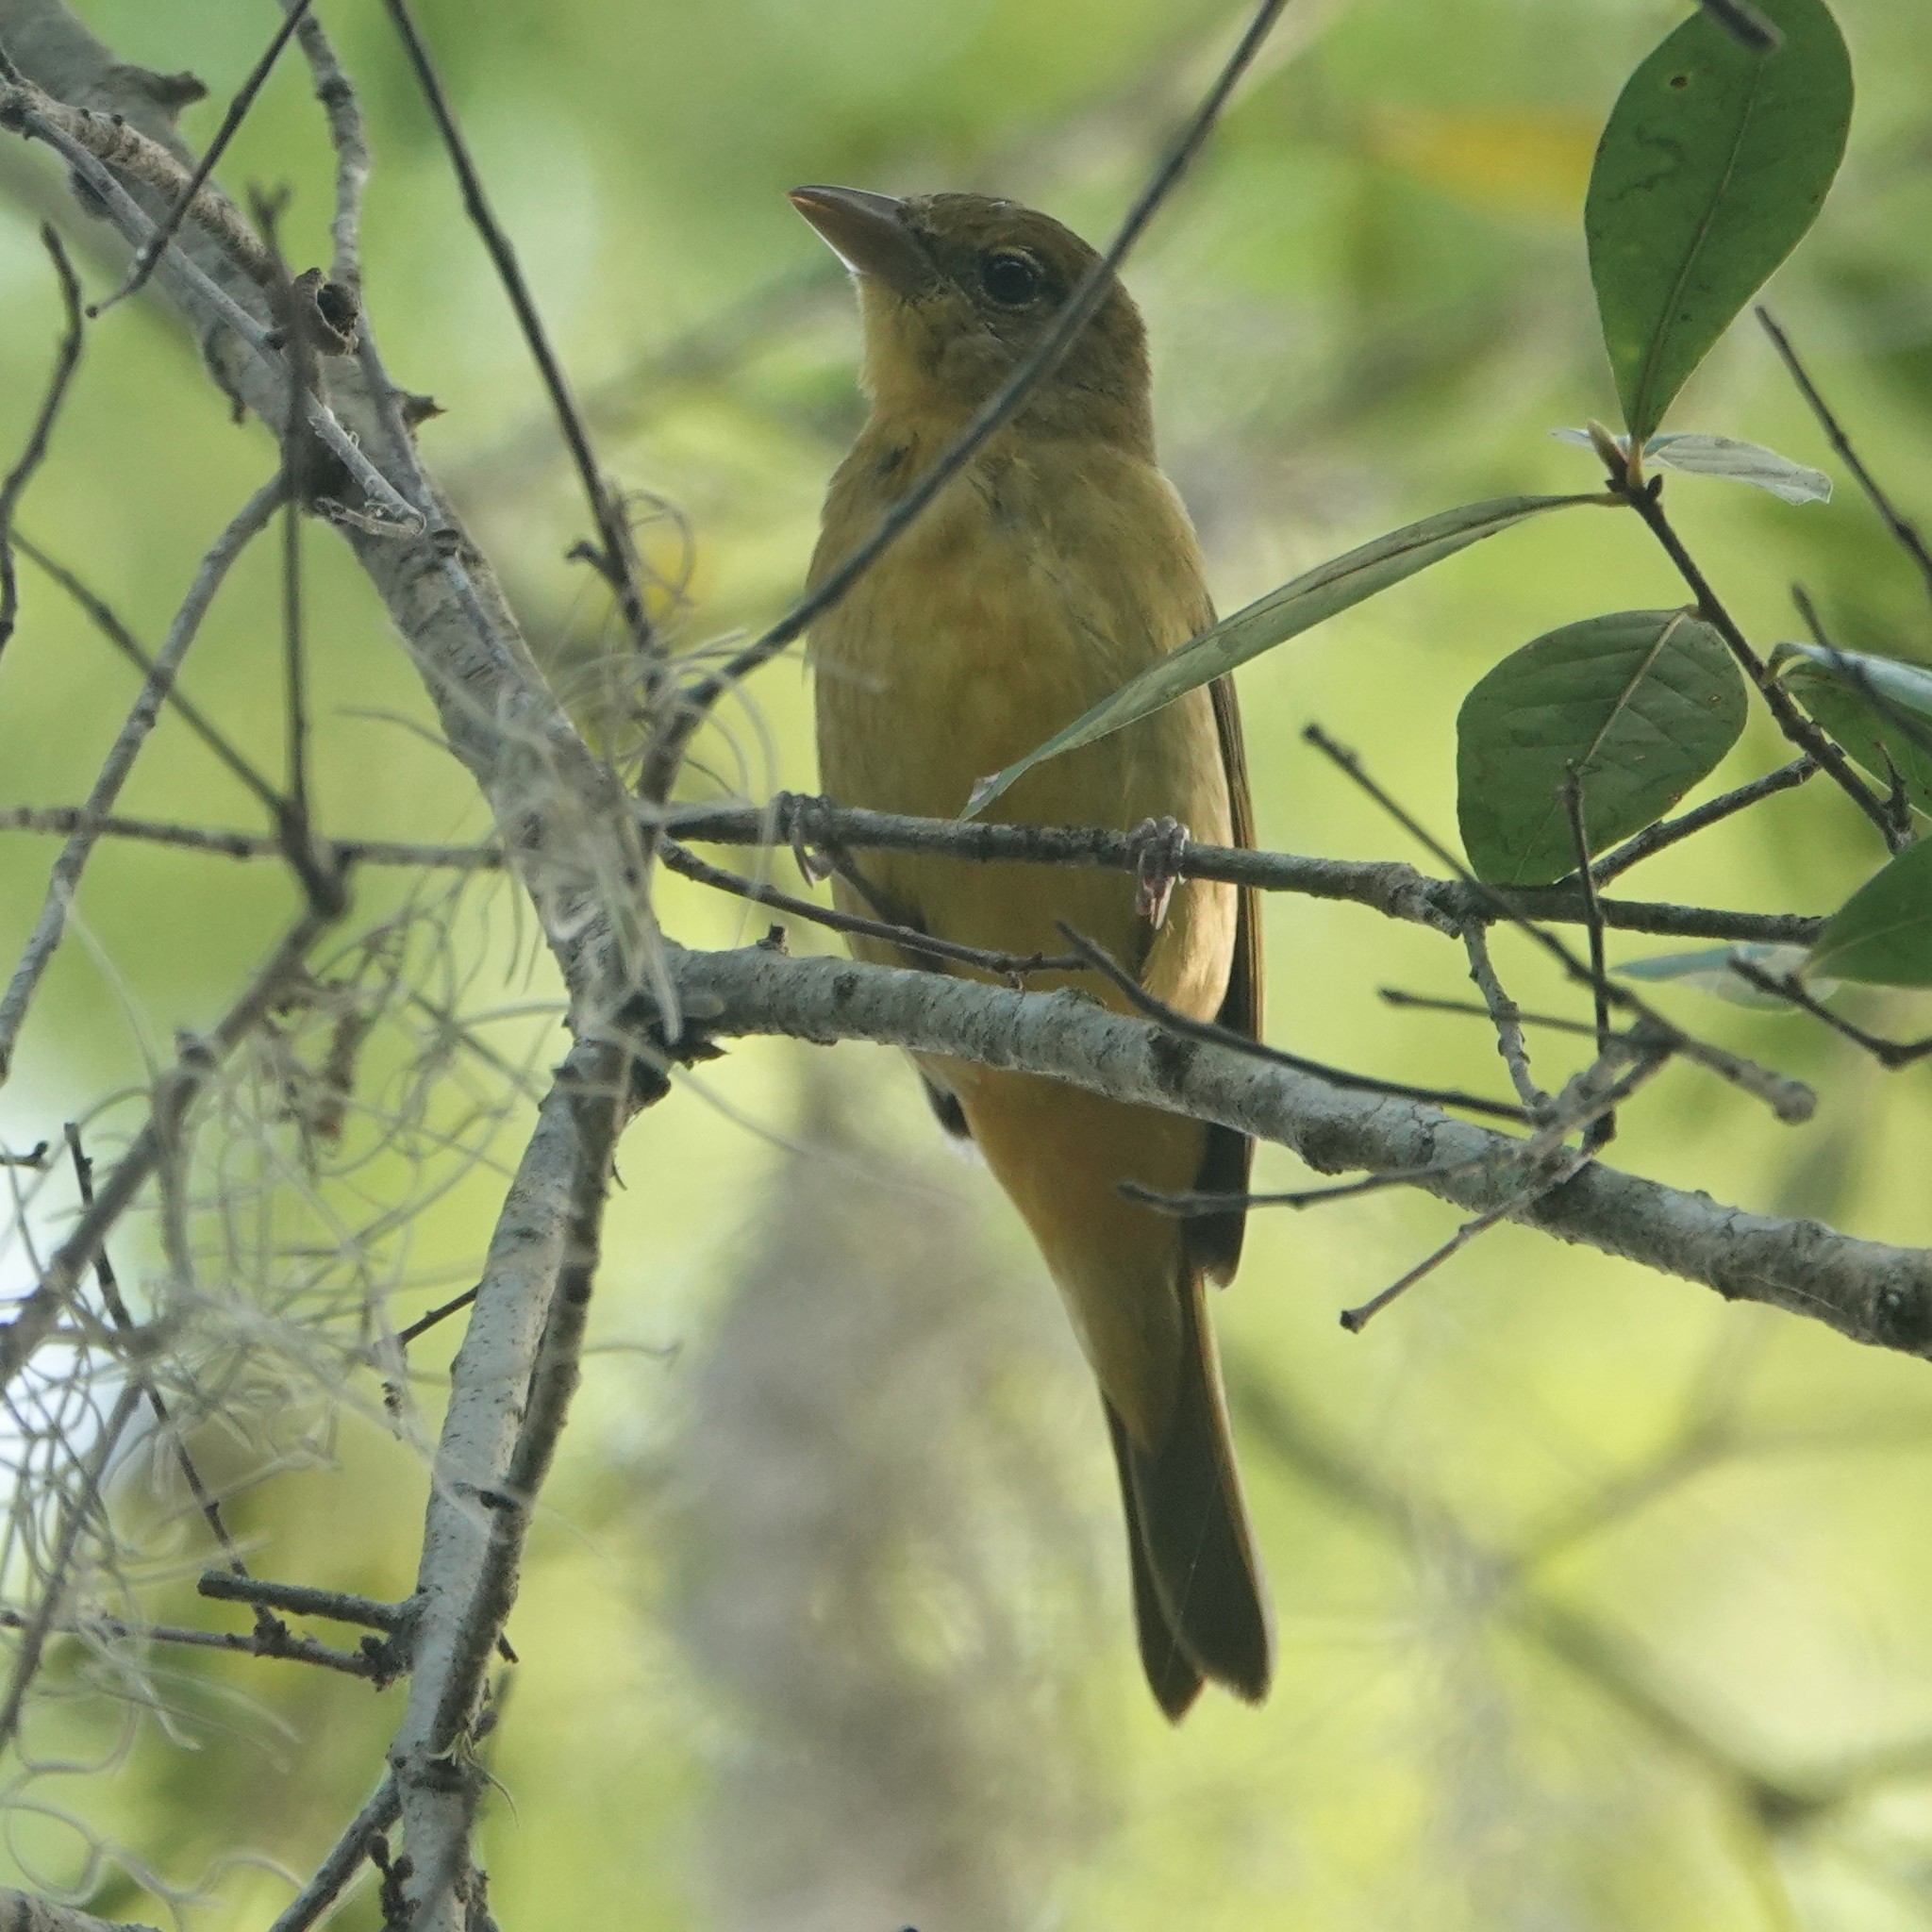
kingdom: Animalia
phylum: Chordata
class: Aves
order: Passeriformes
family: Cardinalidae
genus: Piranga
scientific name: Piranga rubra
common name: Summer tanager
